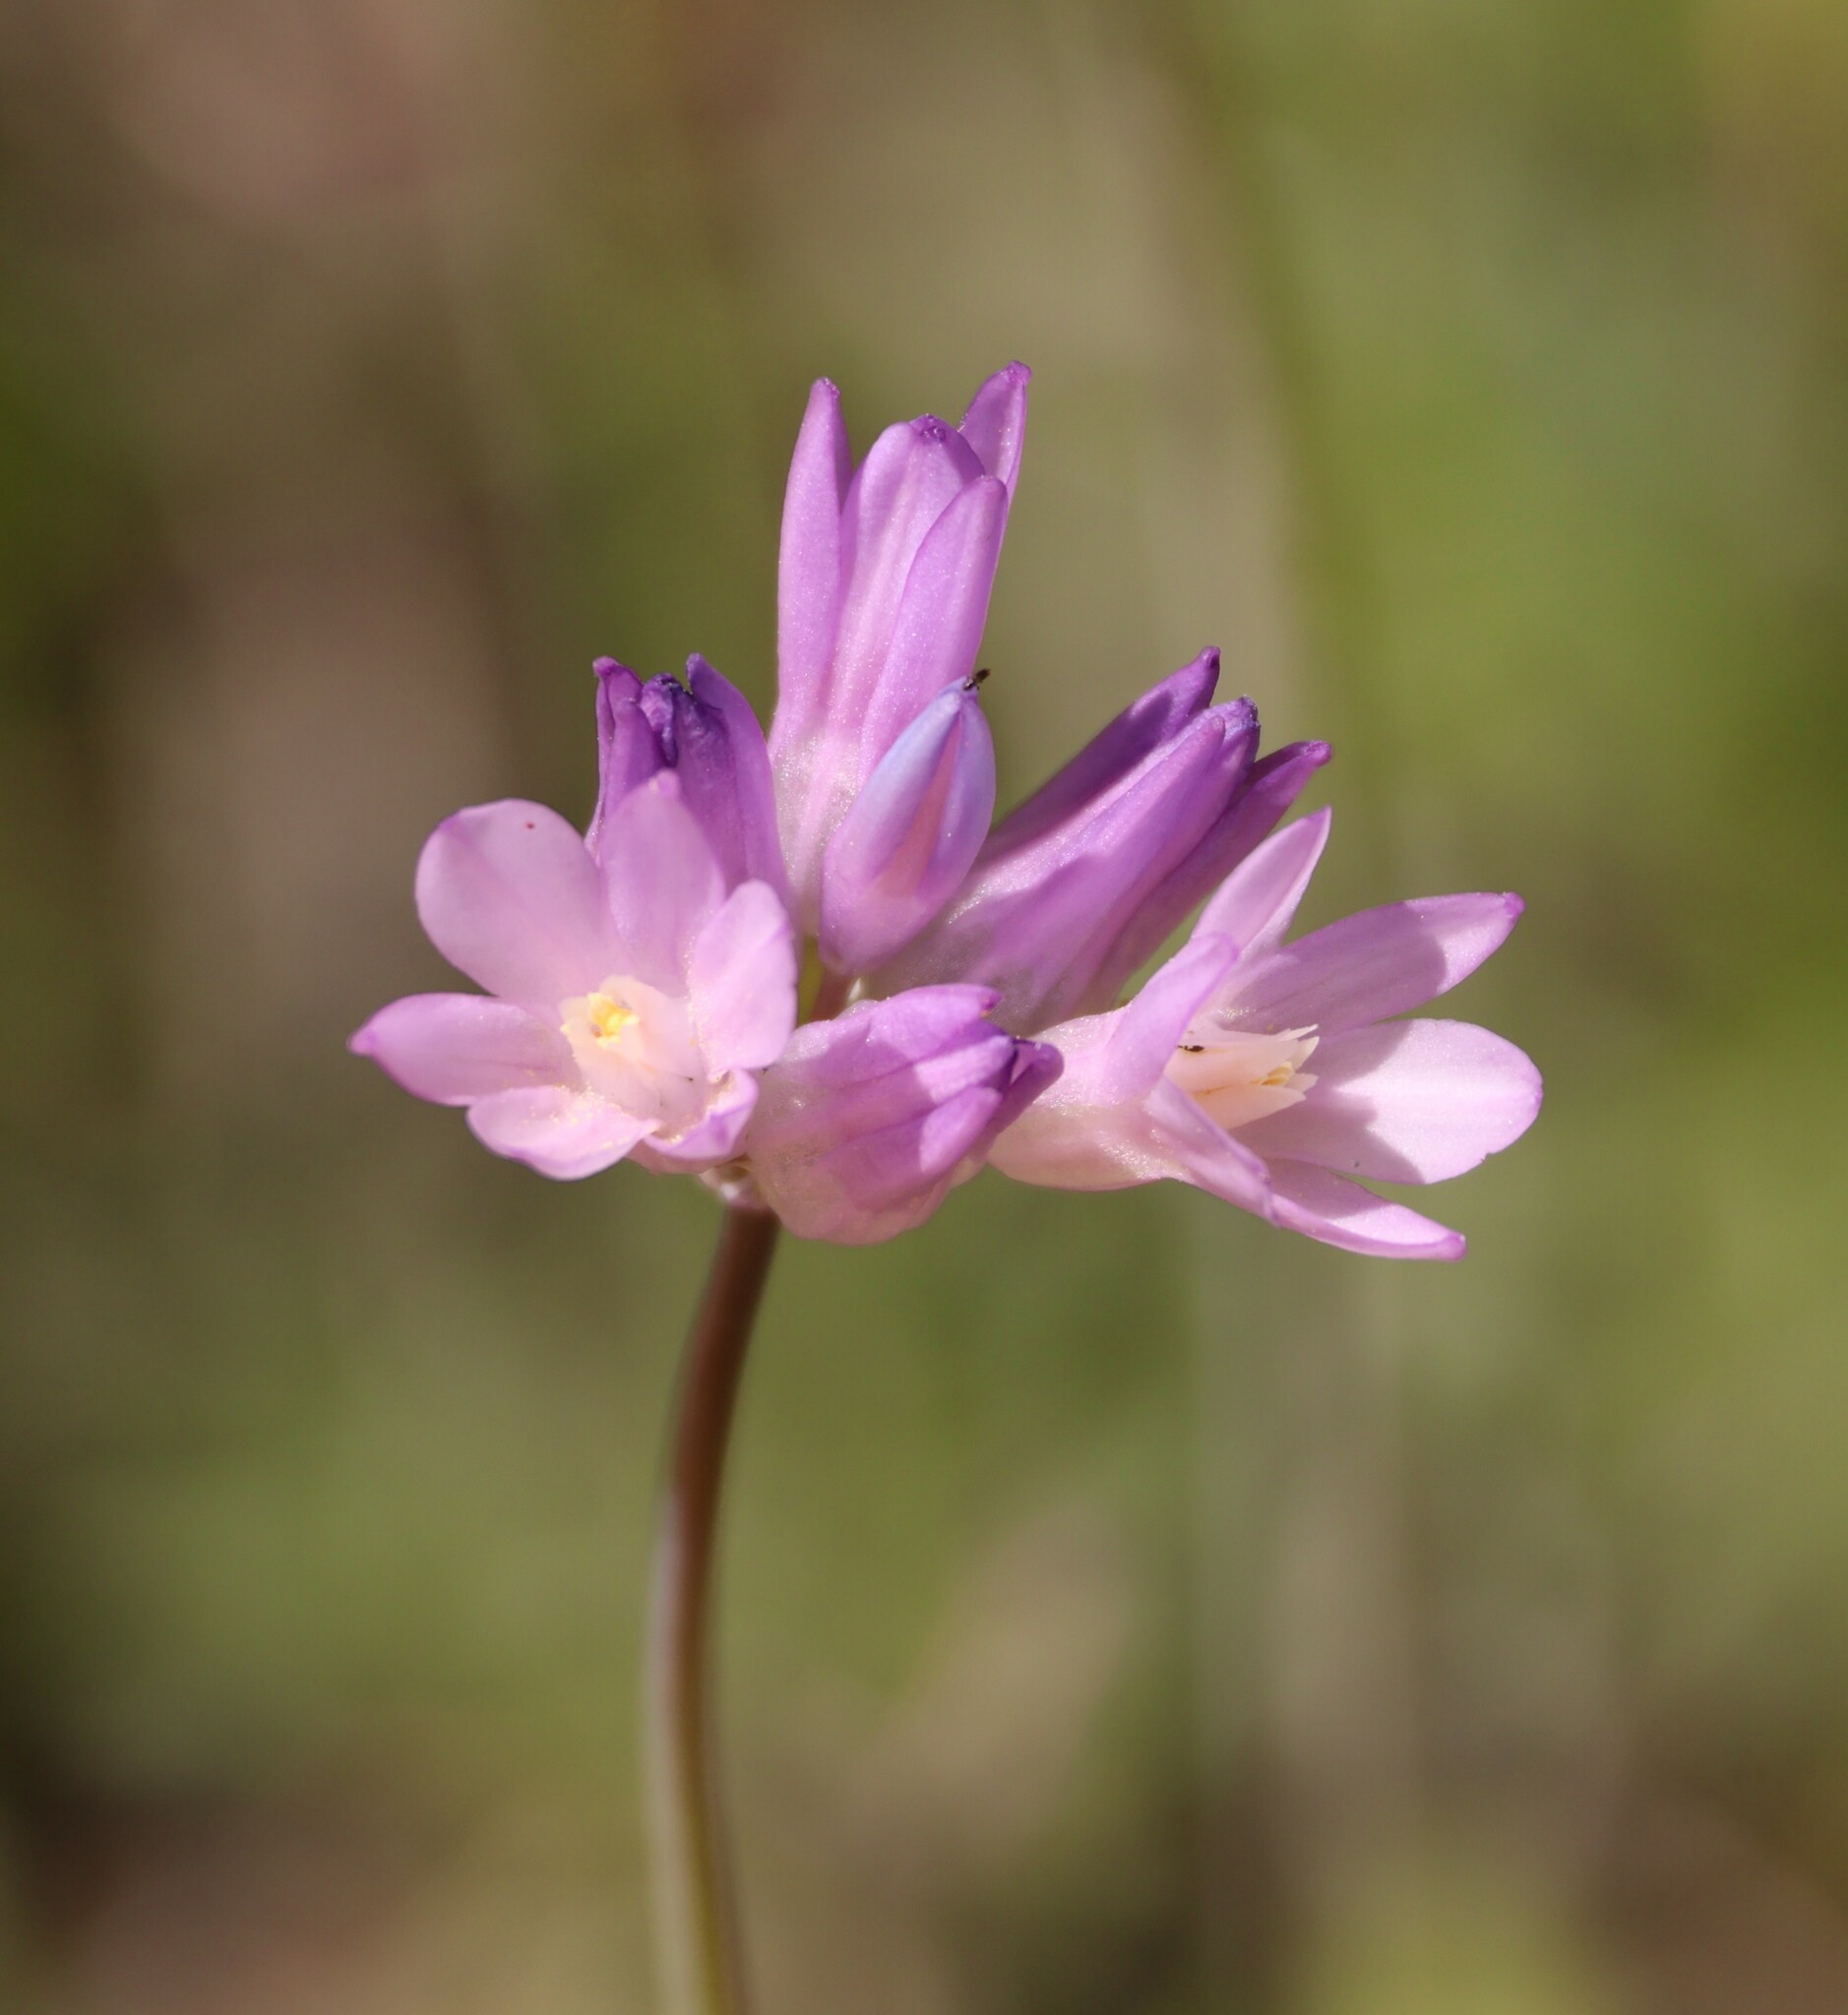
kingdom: Plantae
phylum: Tracheophyta
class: Liliopsida
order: Asparagales
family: Asparagaceae
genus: Dipterostemon
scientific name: Dipterostemon capitatus
